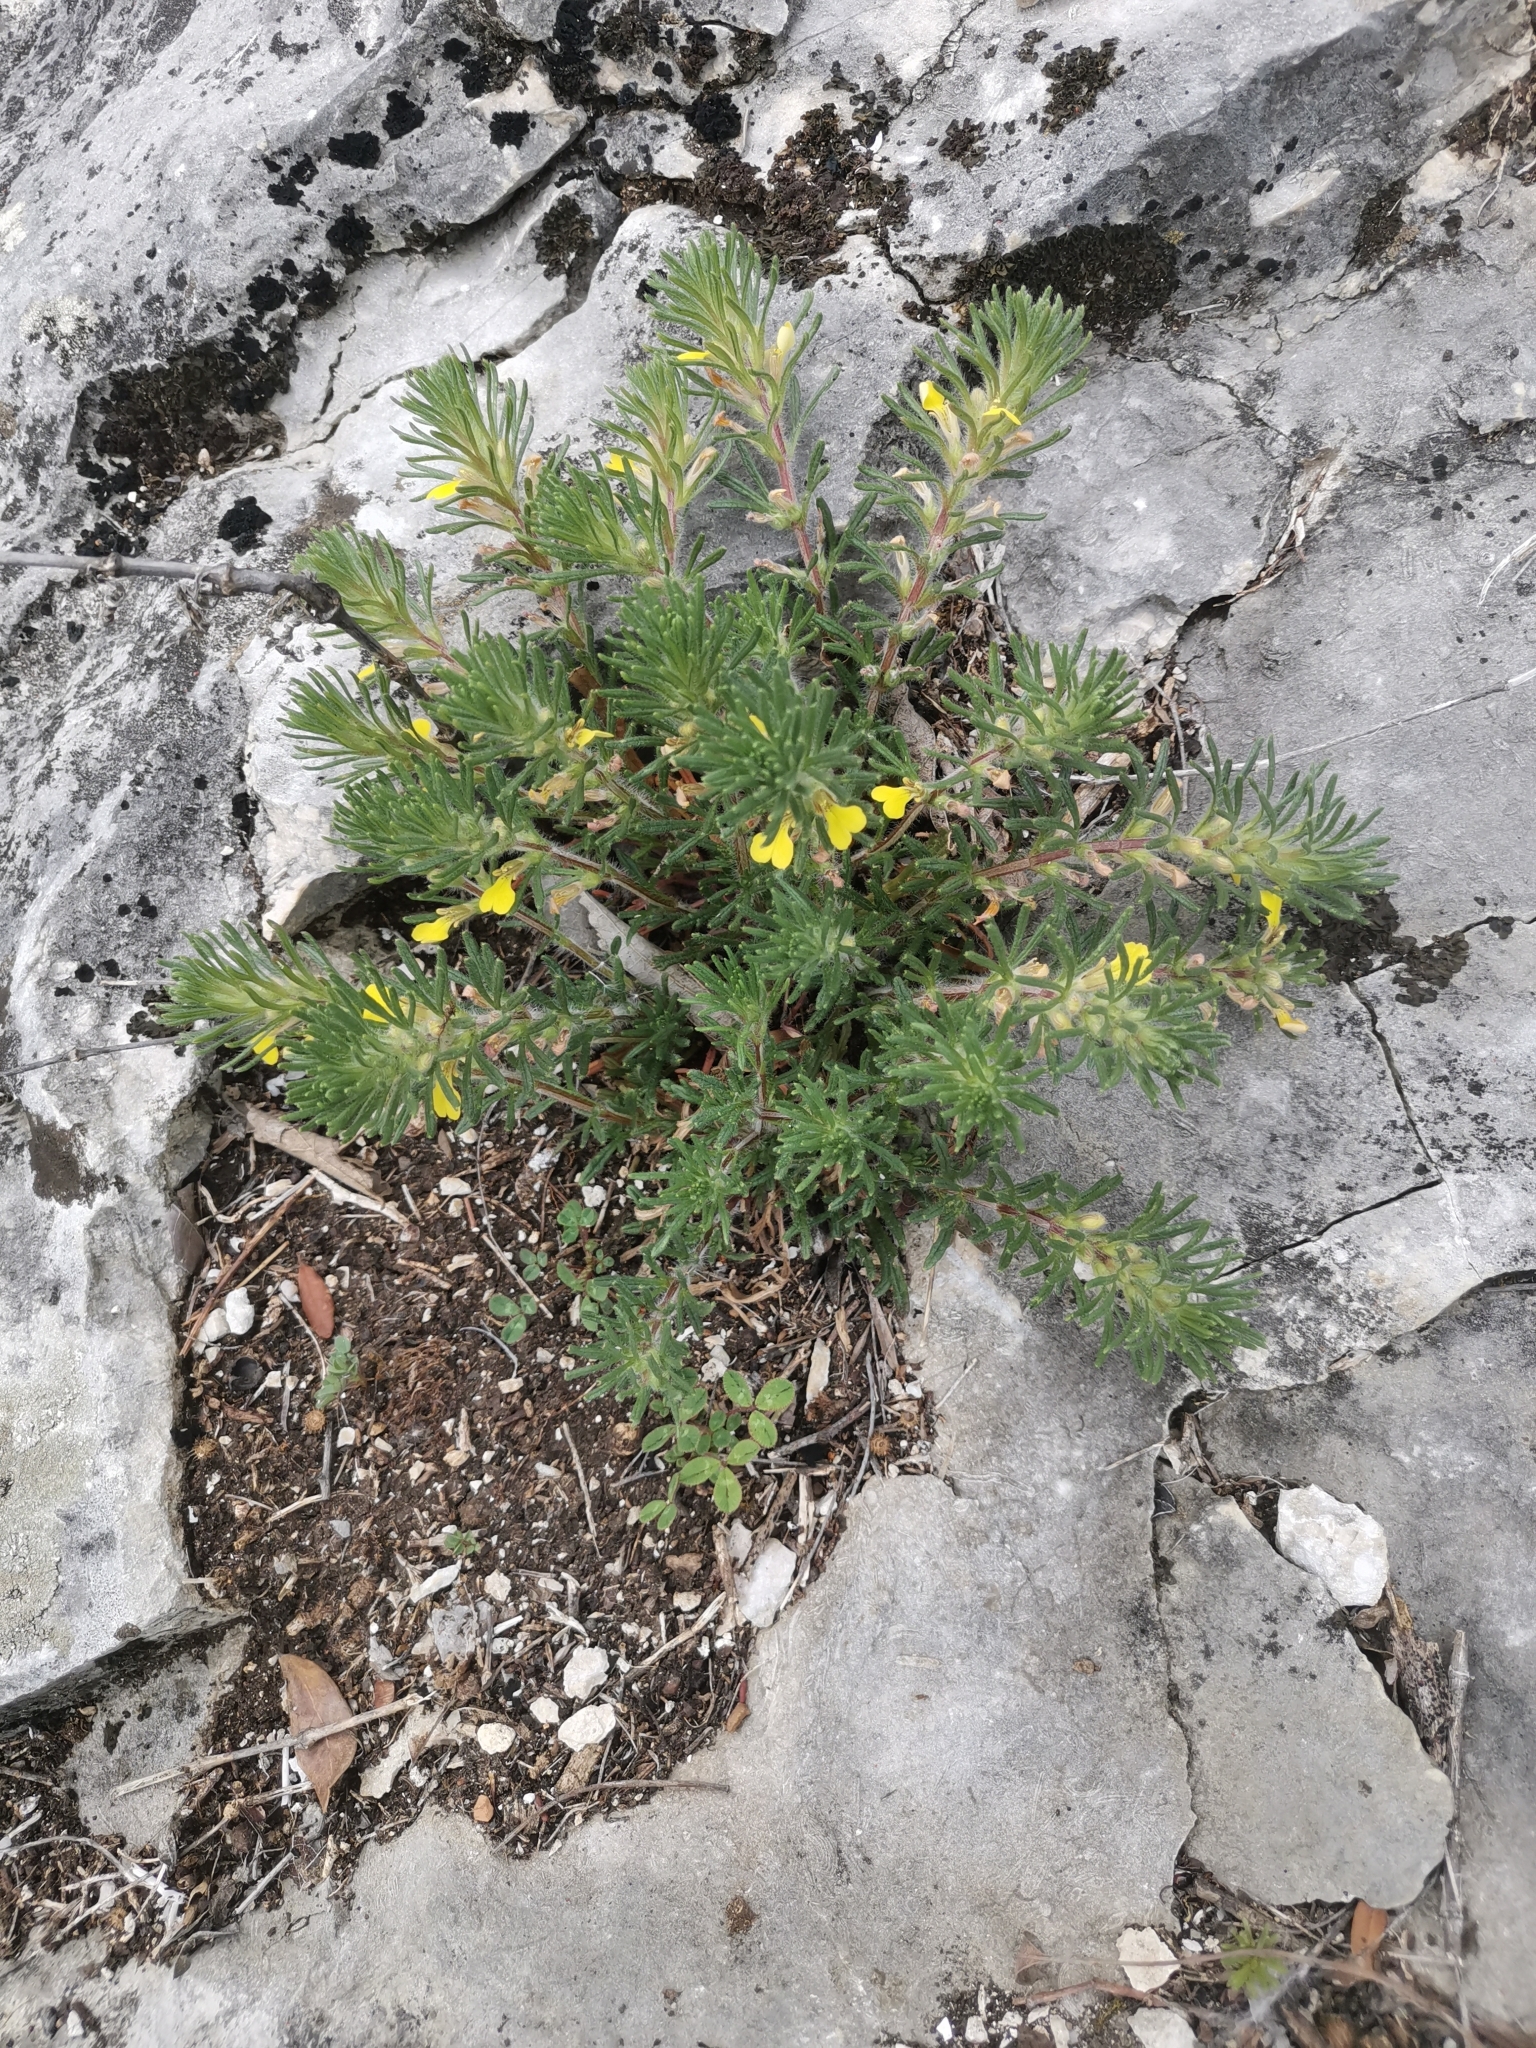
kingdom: Plantae
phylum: Tracheophyta
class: Magnoliopsida
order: Lamiales
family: Lamiaceae
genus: Ajuga
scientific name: Ajuga chamaepitys
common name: Ground-pine
